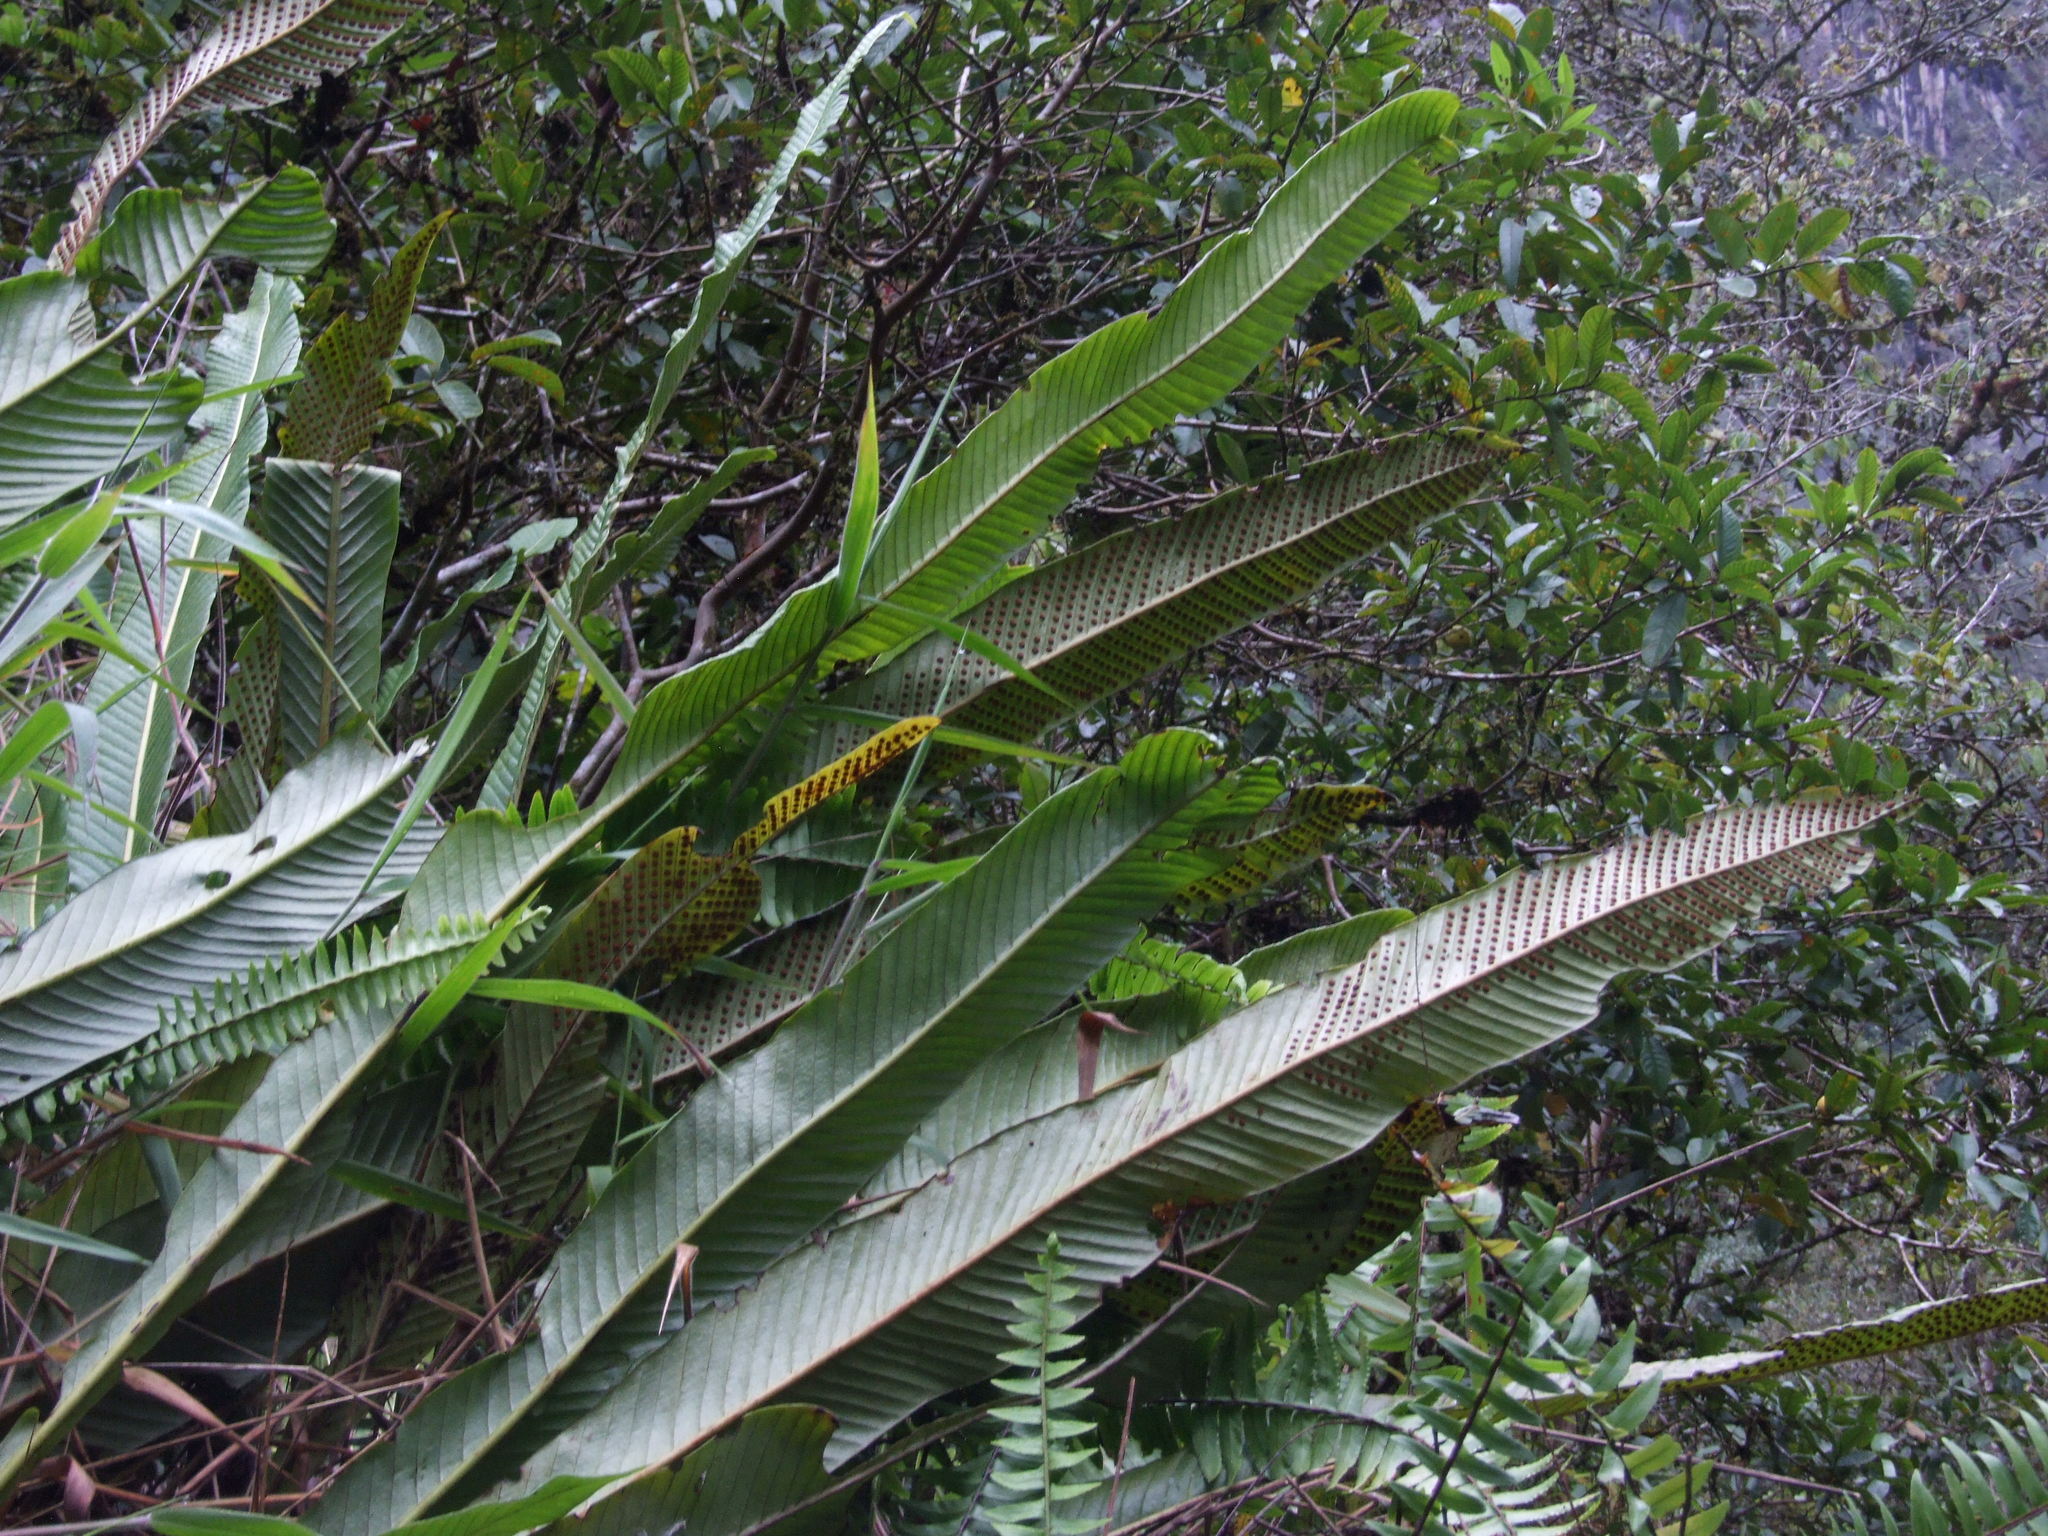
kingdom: Plantae
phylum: Tracheophyta
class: Polypodiopsida
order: Polypodiales
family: Polypodiaceae
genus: Niphidium
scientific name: Niphidium crassifolium
